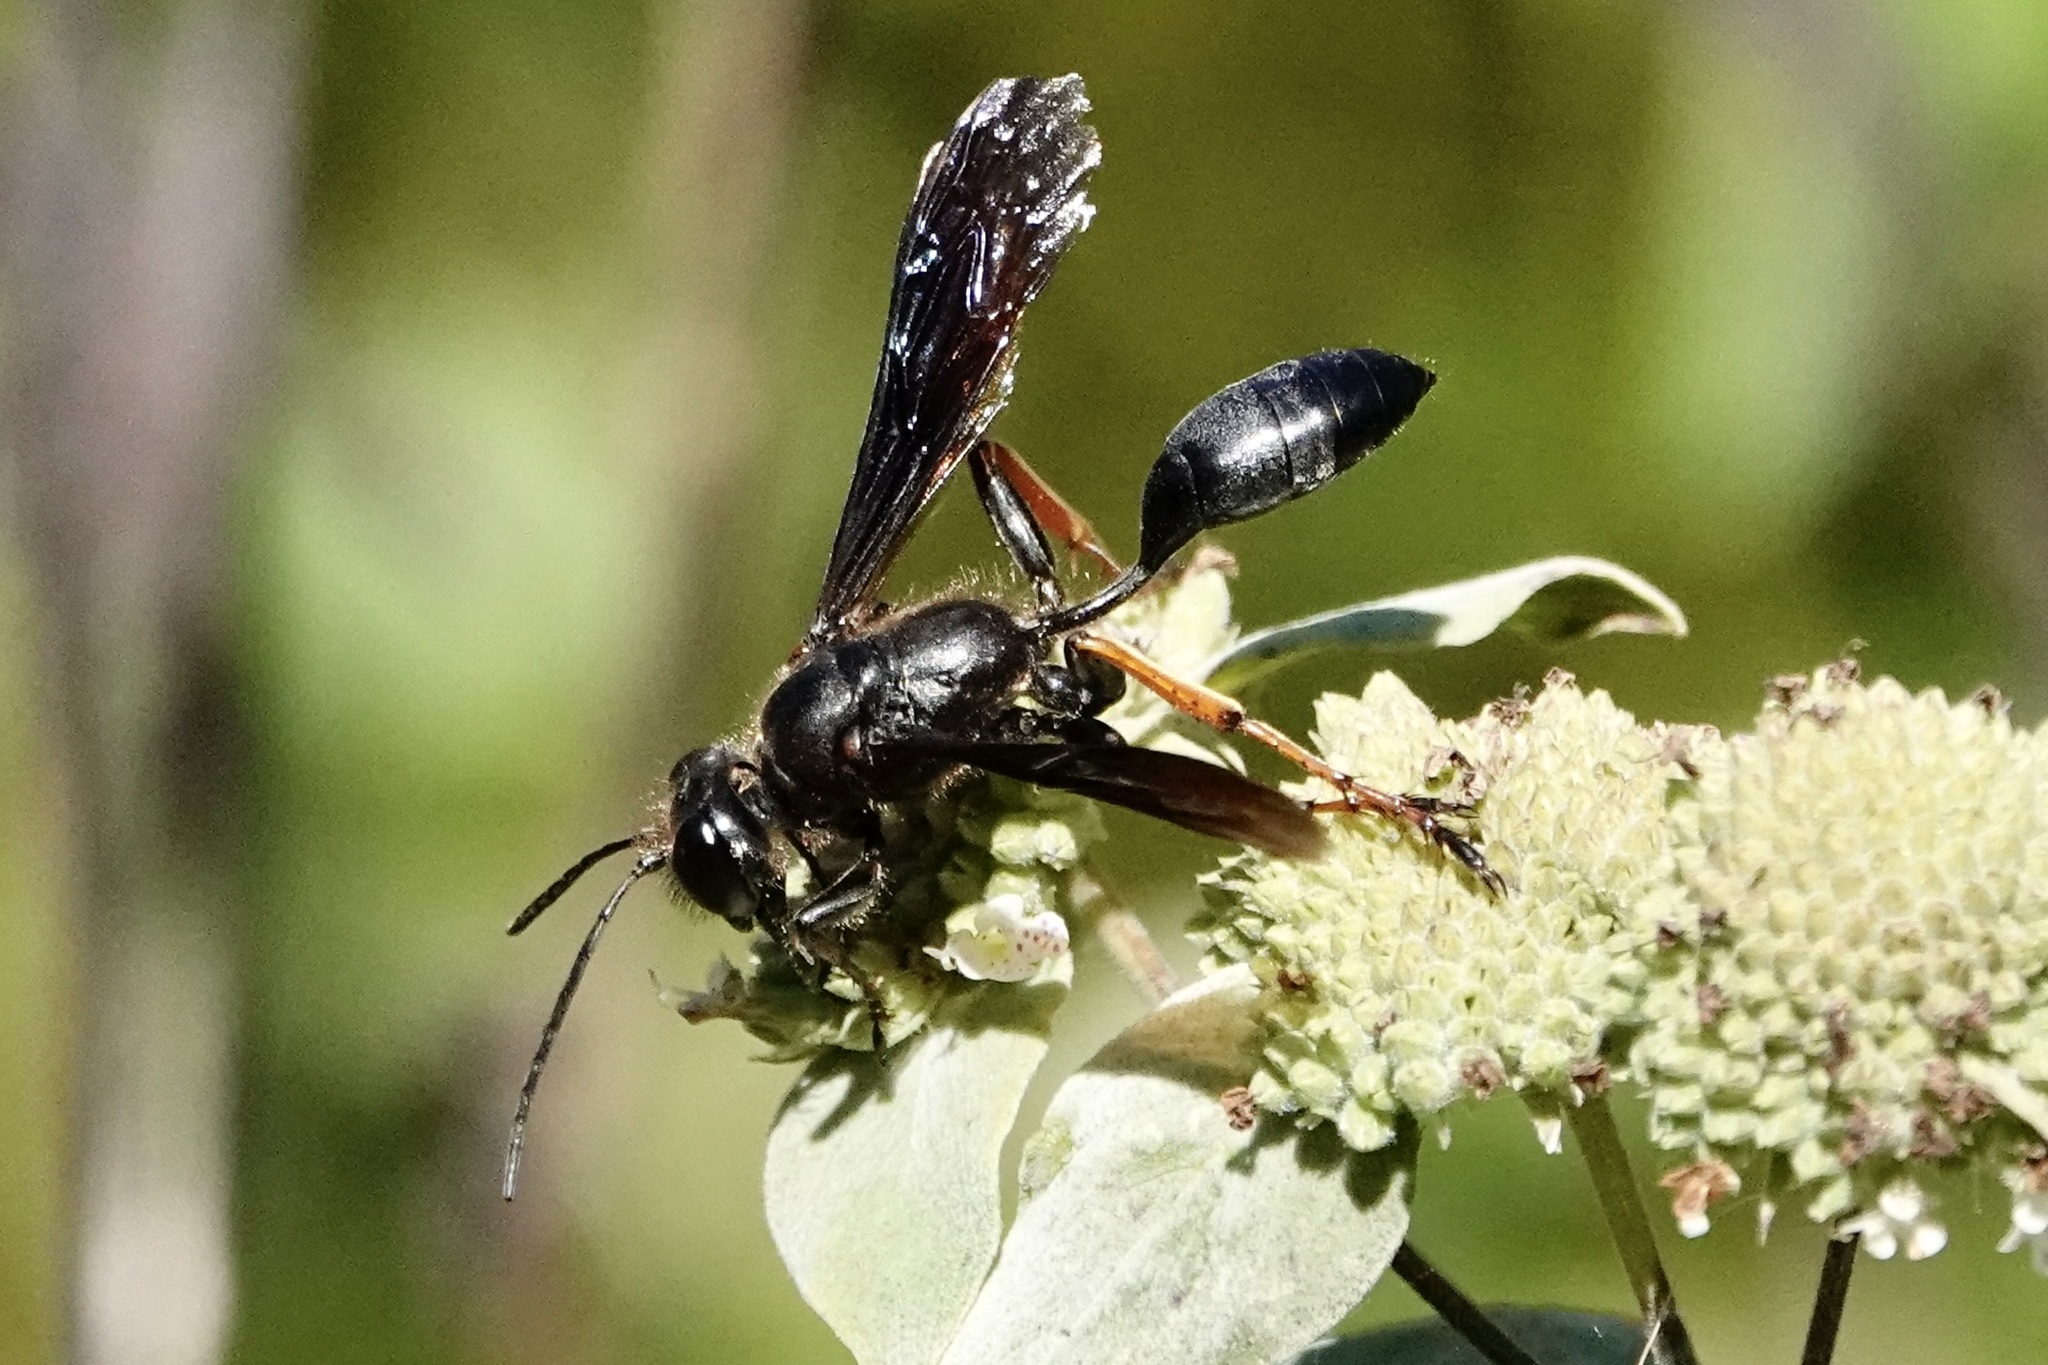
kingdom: Animalia
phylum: Arthropoda
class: Insecta
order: Hymenoptera
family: Sphecidae
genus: Isodontia
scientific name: Isodontia auripes
